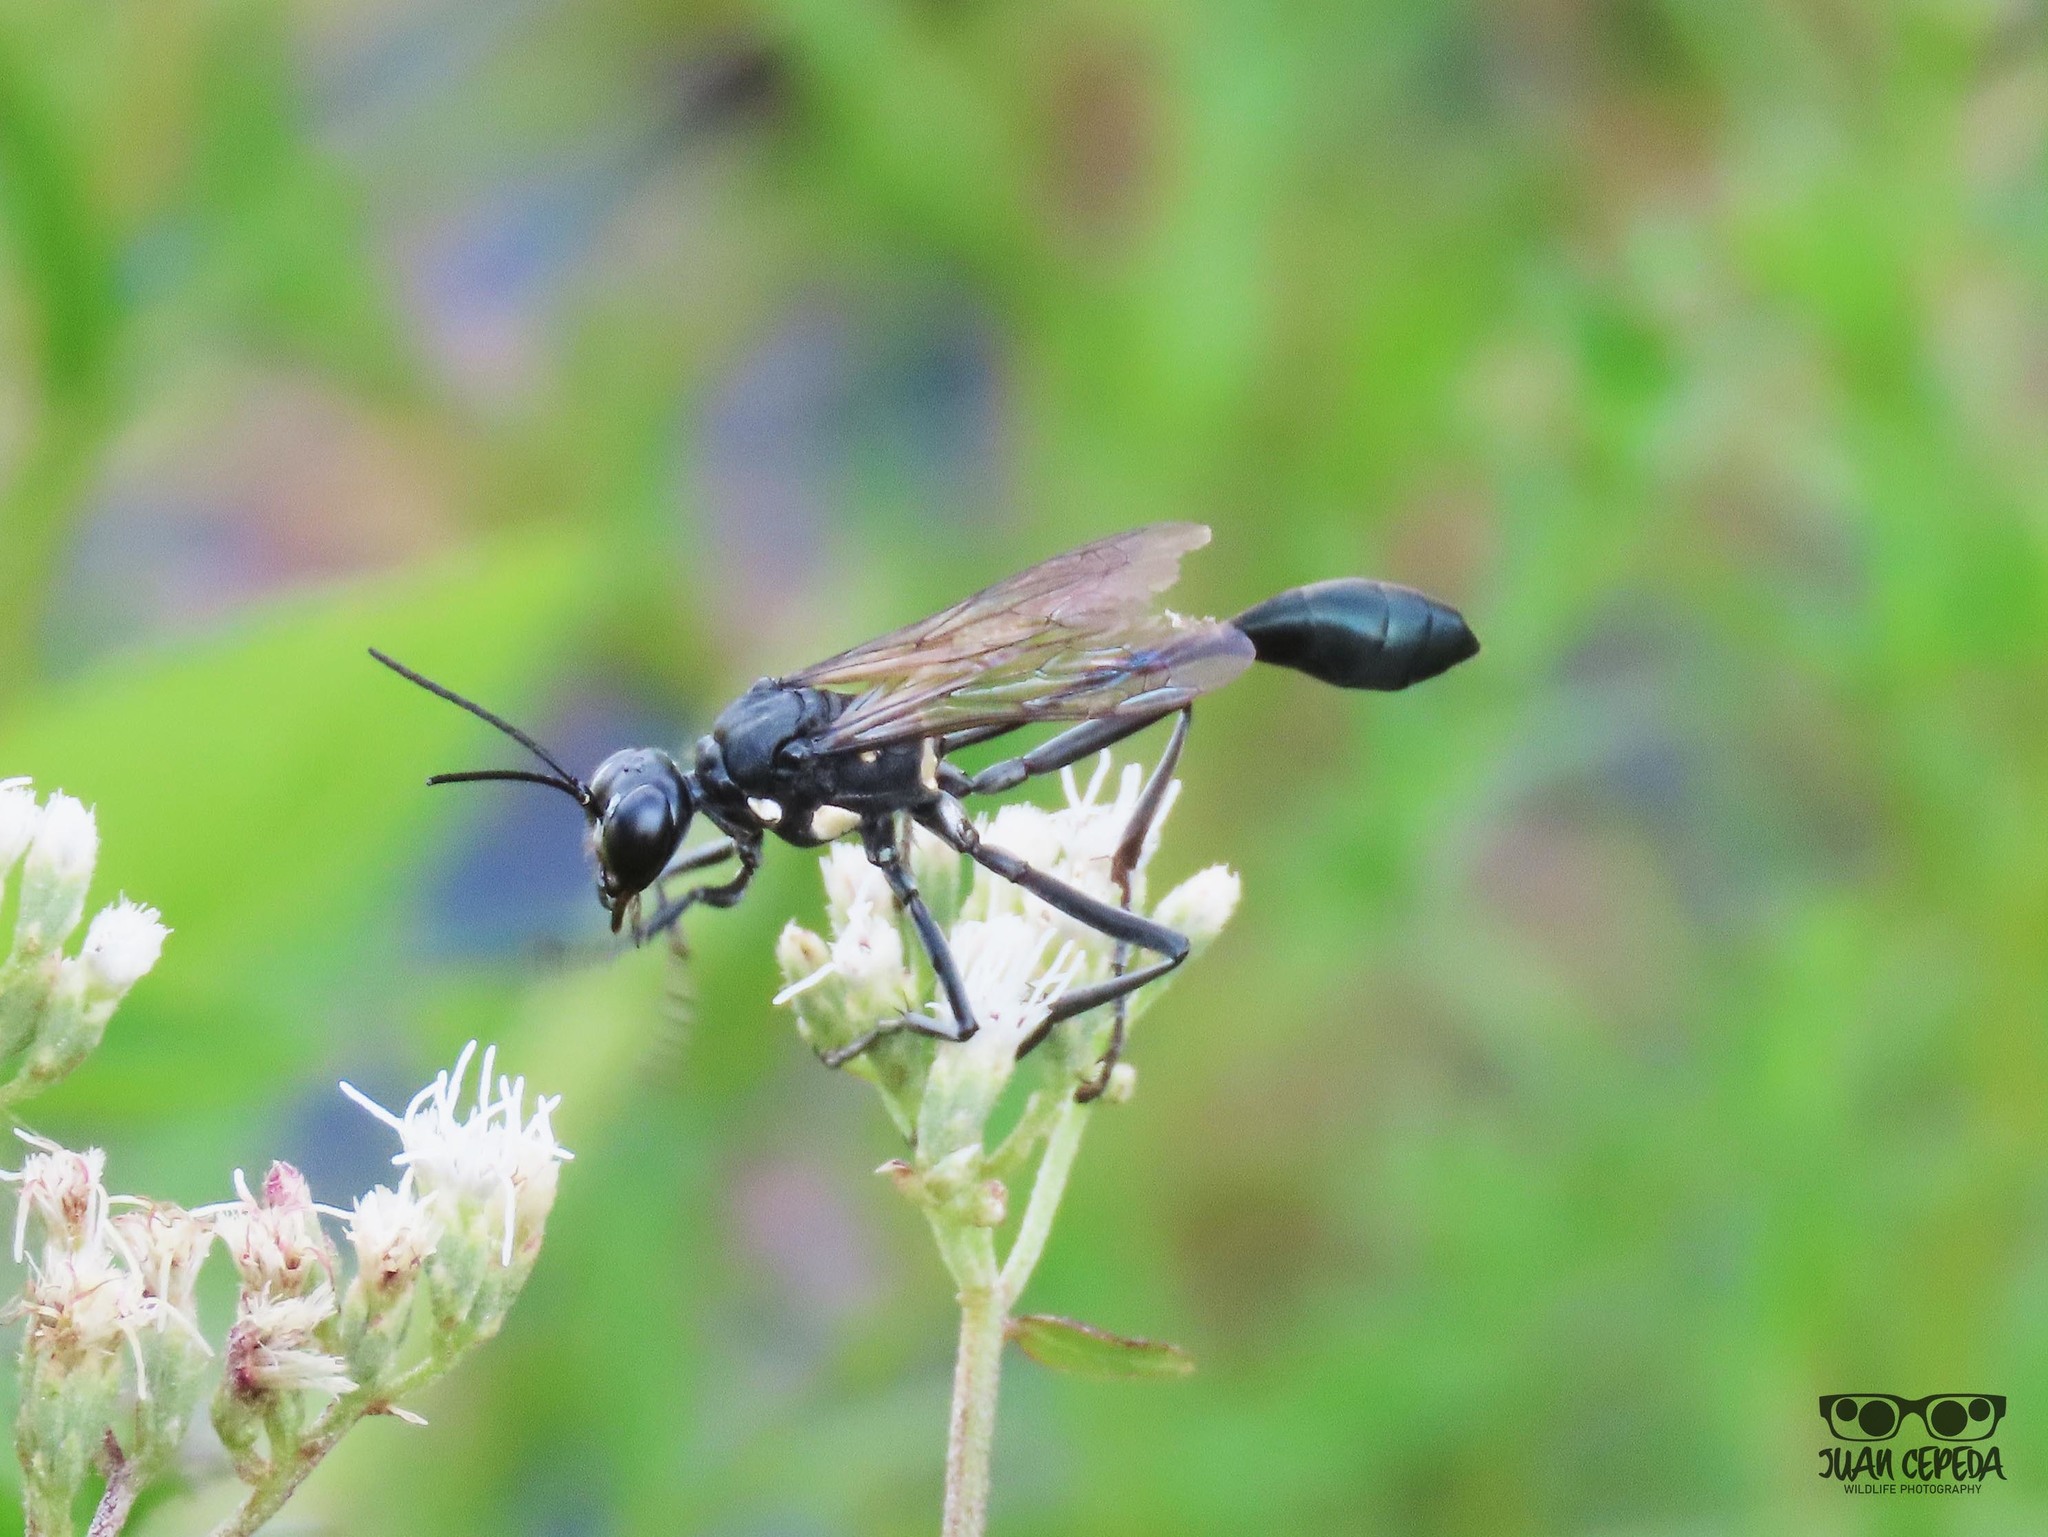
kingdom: Animalia
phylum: Arthropoda
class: Insecta
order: Hymenoptera
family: Sphecidae
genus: Eremnophila
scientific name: Eremnophila aureonotata
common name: Gold-marked thread-waisted wasp
